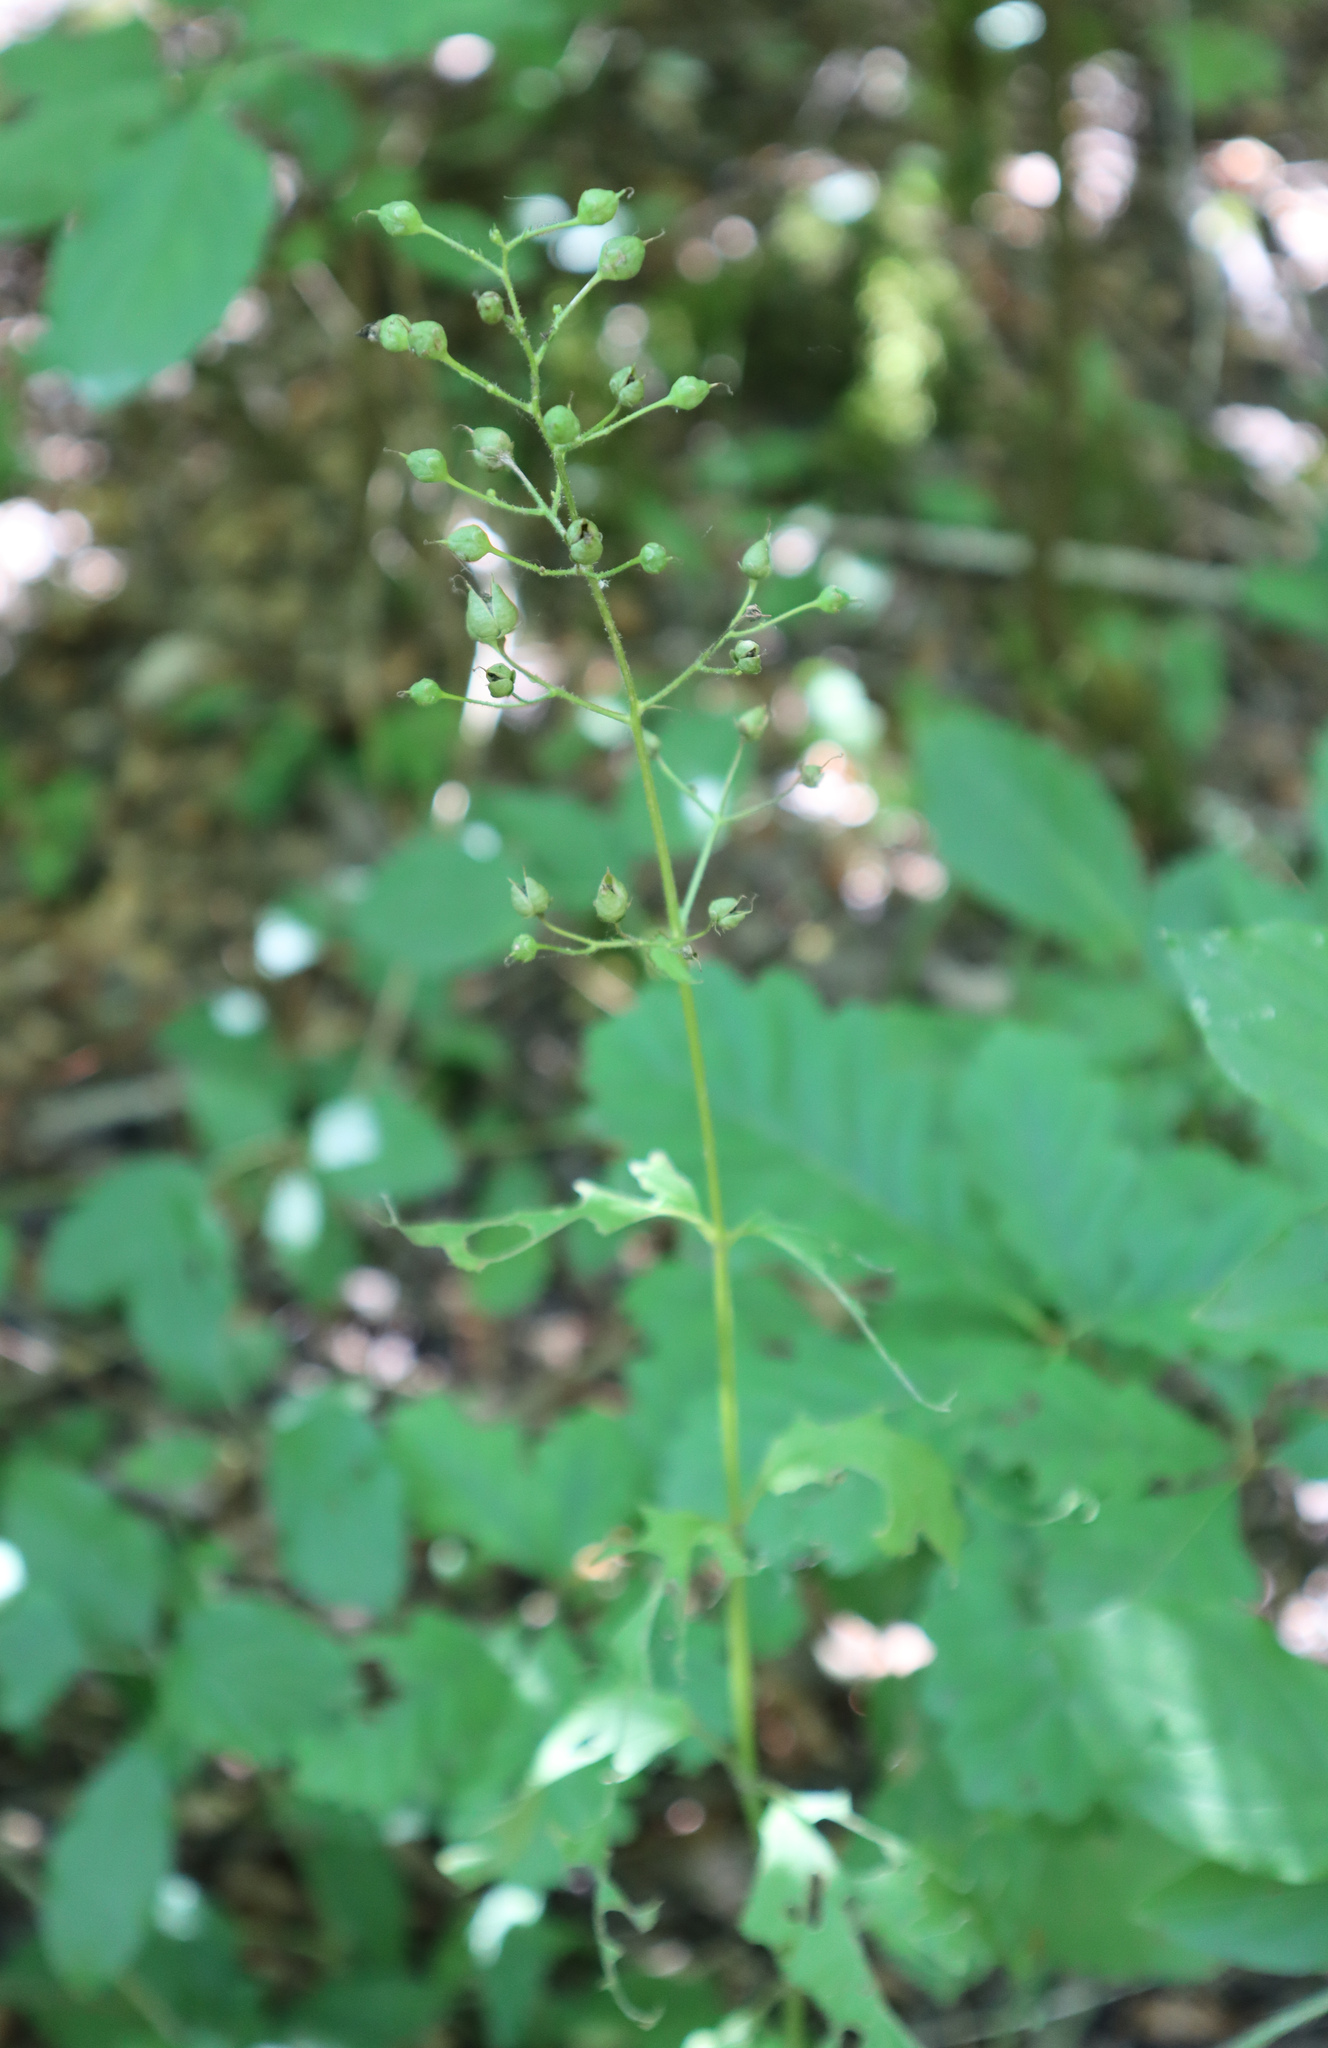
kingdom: Plantae
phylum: Tracheophyta
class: Magnoliopsida
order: Lamiales
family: Scrophulariaceae
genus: Scrophularia
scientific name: Scrophularia nodosa
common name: Common figwort
